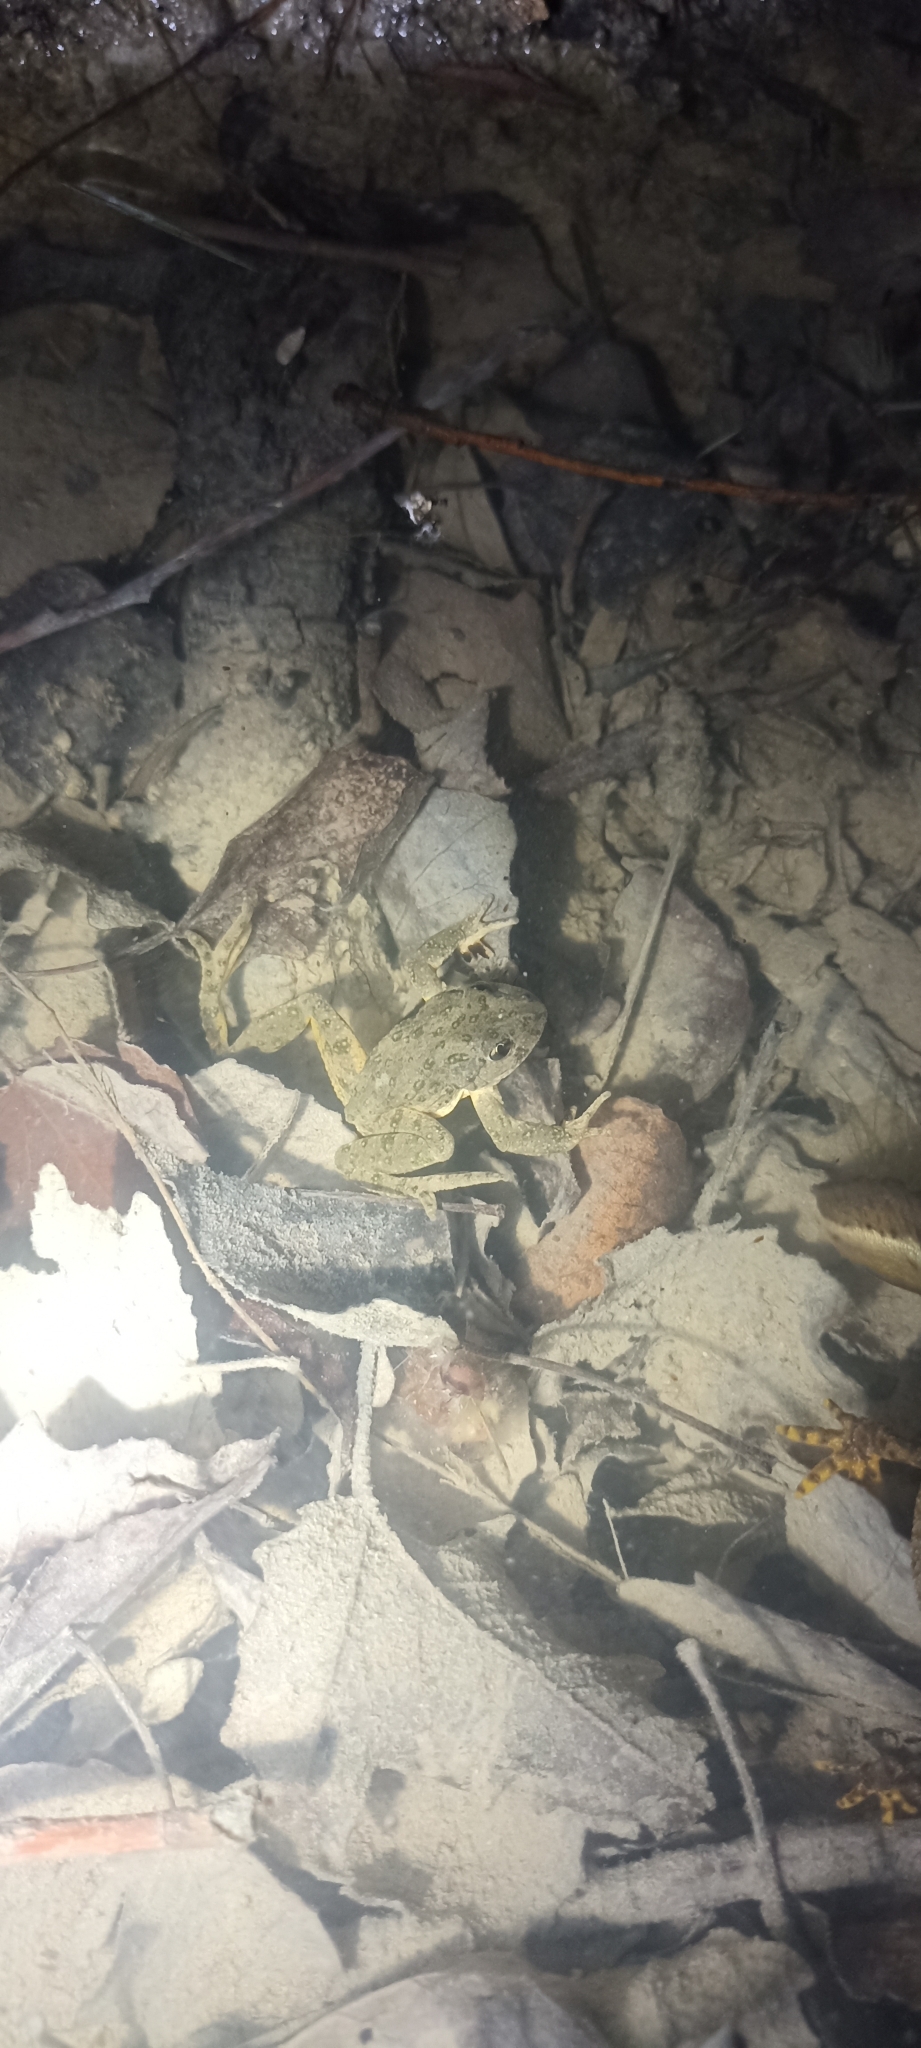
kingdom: Animalia
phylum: Chordata
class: Amphibia
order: Anura
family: Pelodytidae
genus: Pelodytes
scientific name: Pelodytes punctatus
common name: Parsley frog
